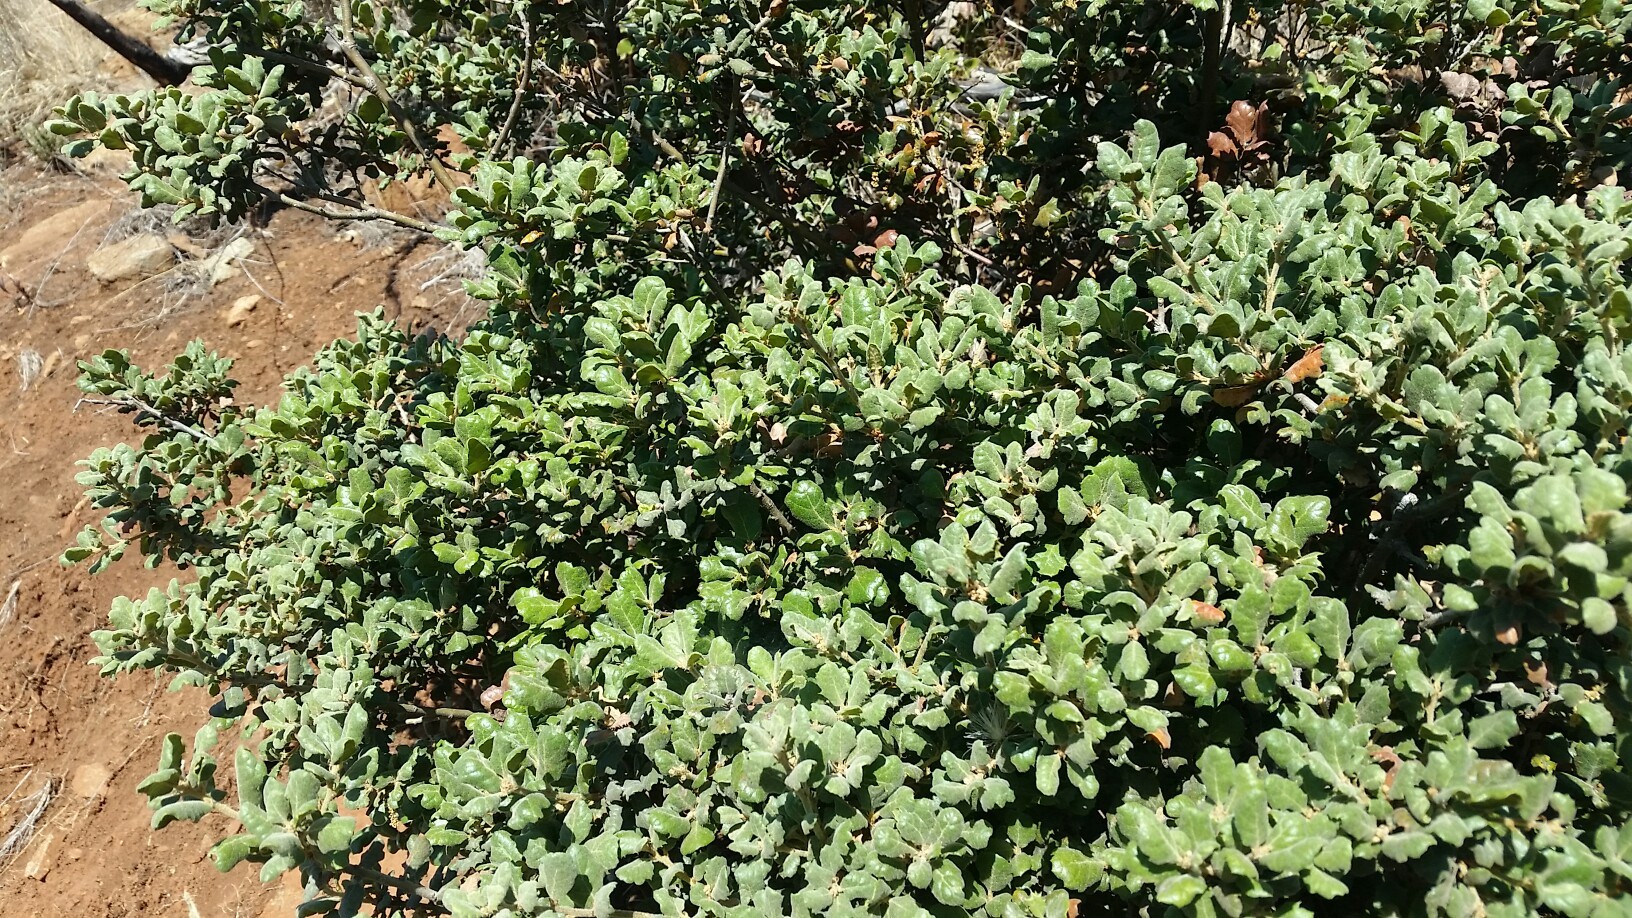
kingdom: Plantae
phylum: Tracheophyta
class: Magnoliopsida
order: Fagales
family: Fagaceae
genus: Quercus
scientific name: Quercus durata
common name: Leather oak
